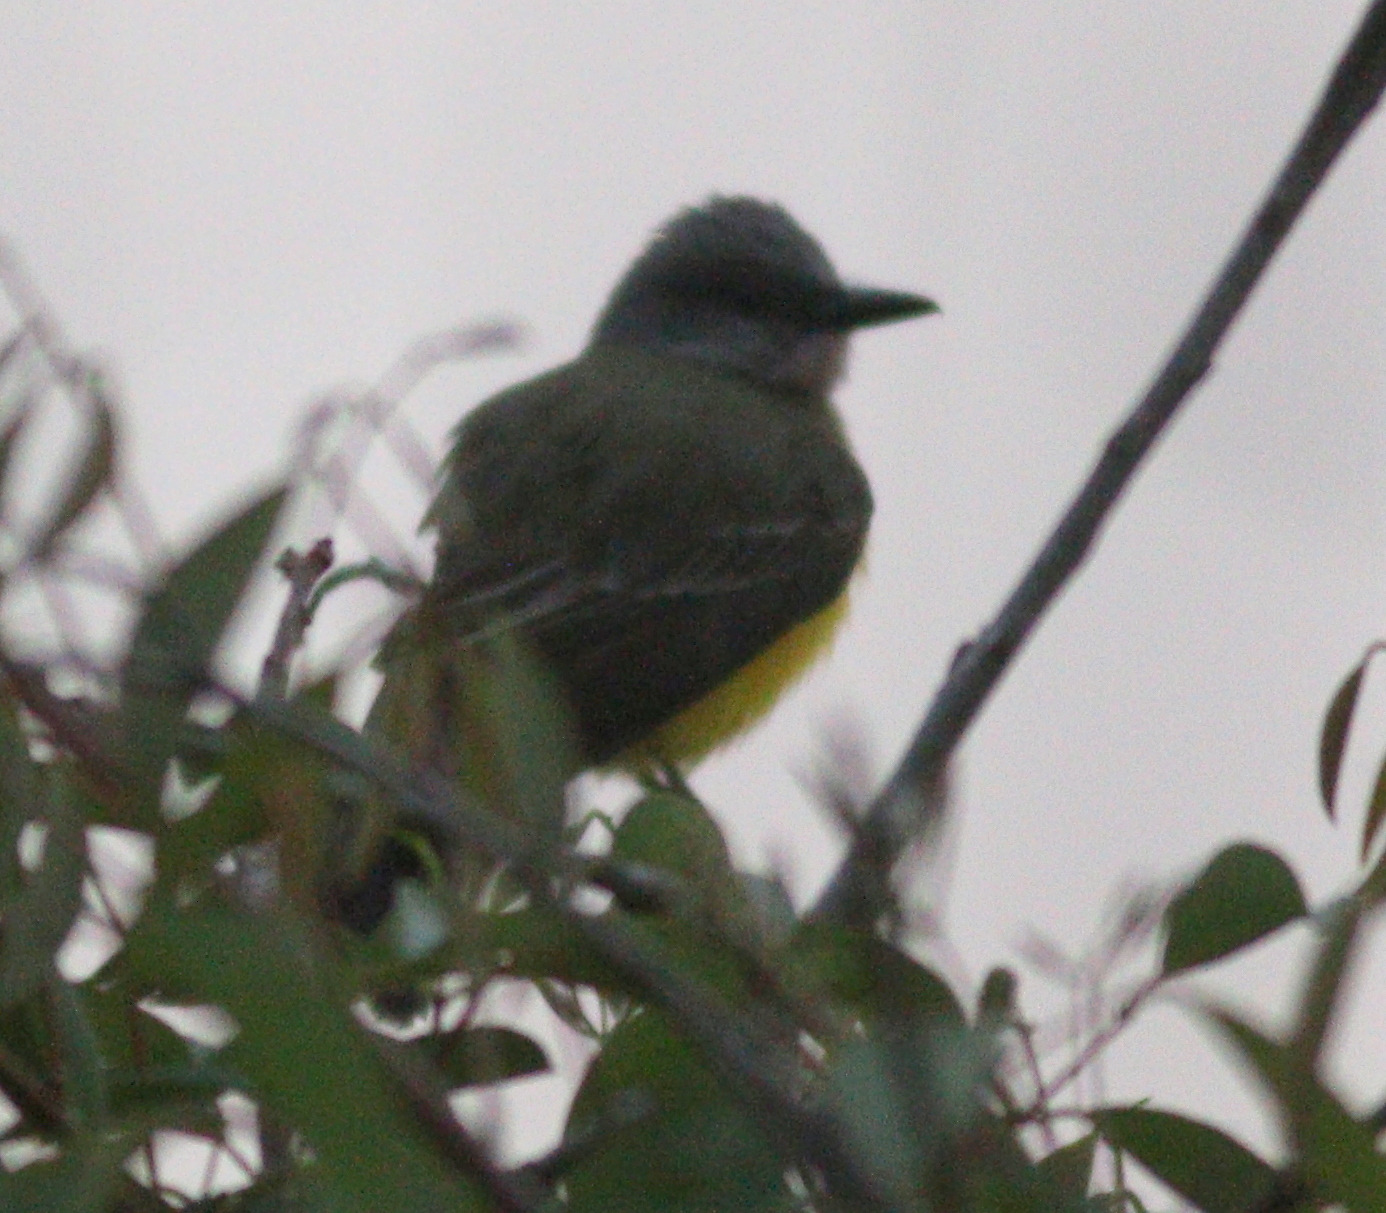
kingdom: Animalia
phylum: Chordata
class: Aves
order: Passeriformes
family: Tyrannidae
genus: Tyrannus
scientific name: Tyrannus melancholicus
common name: Tropical kingbird
